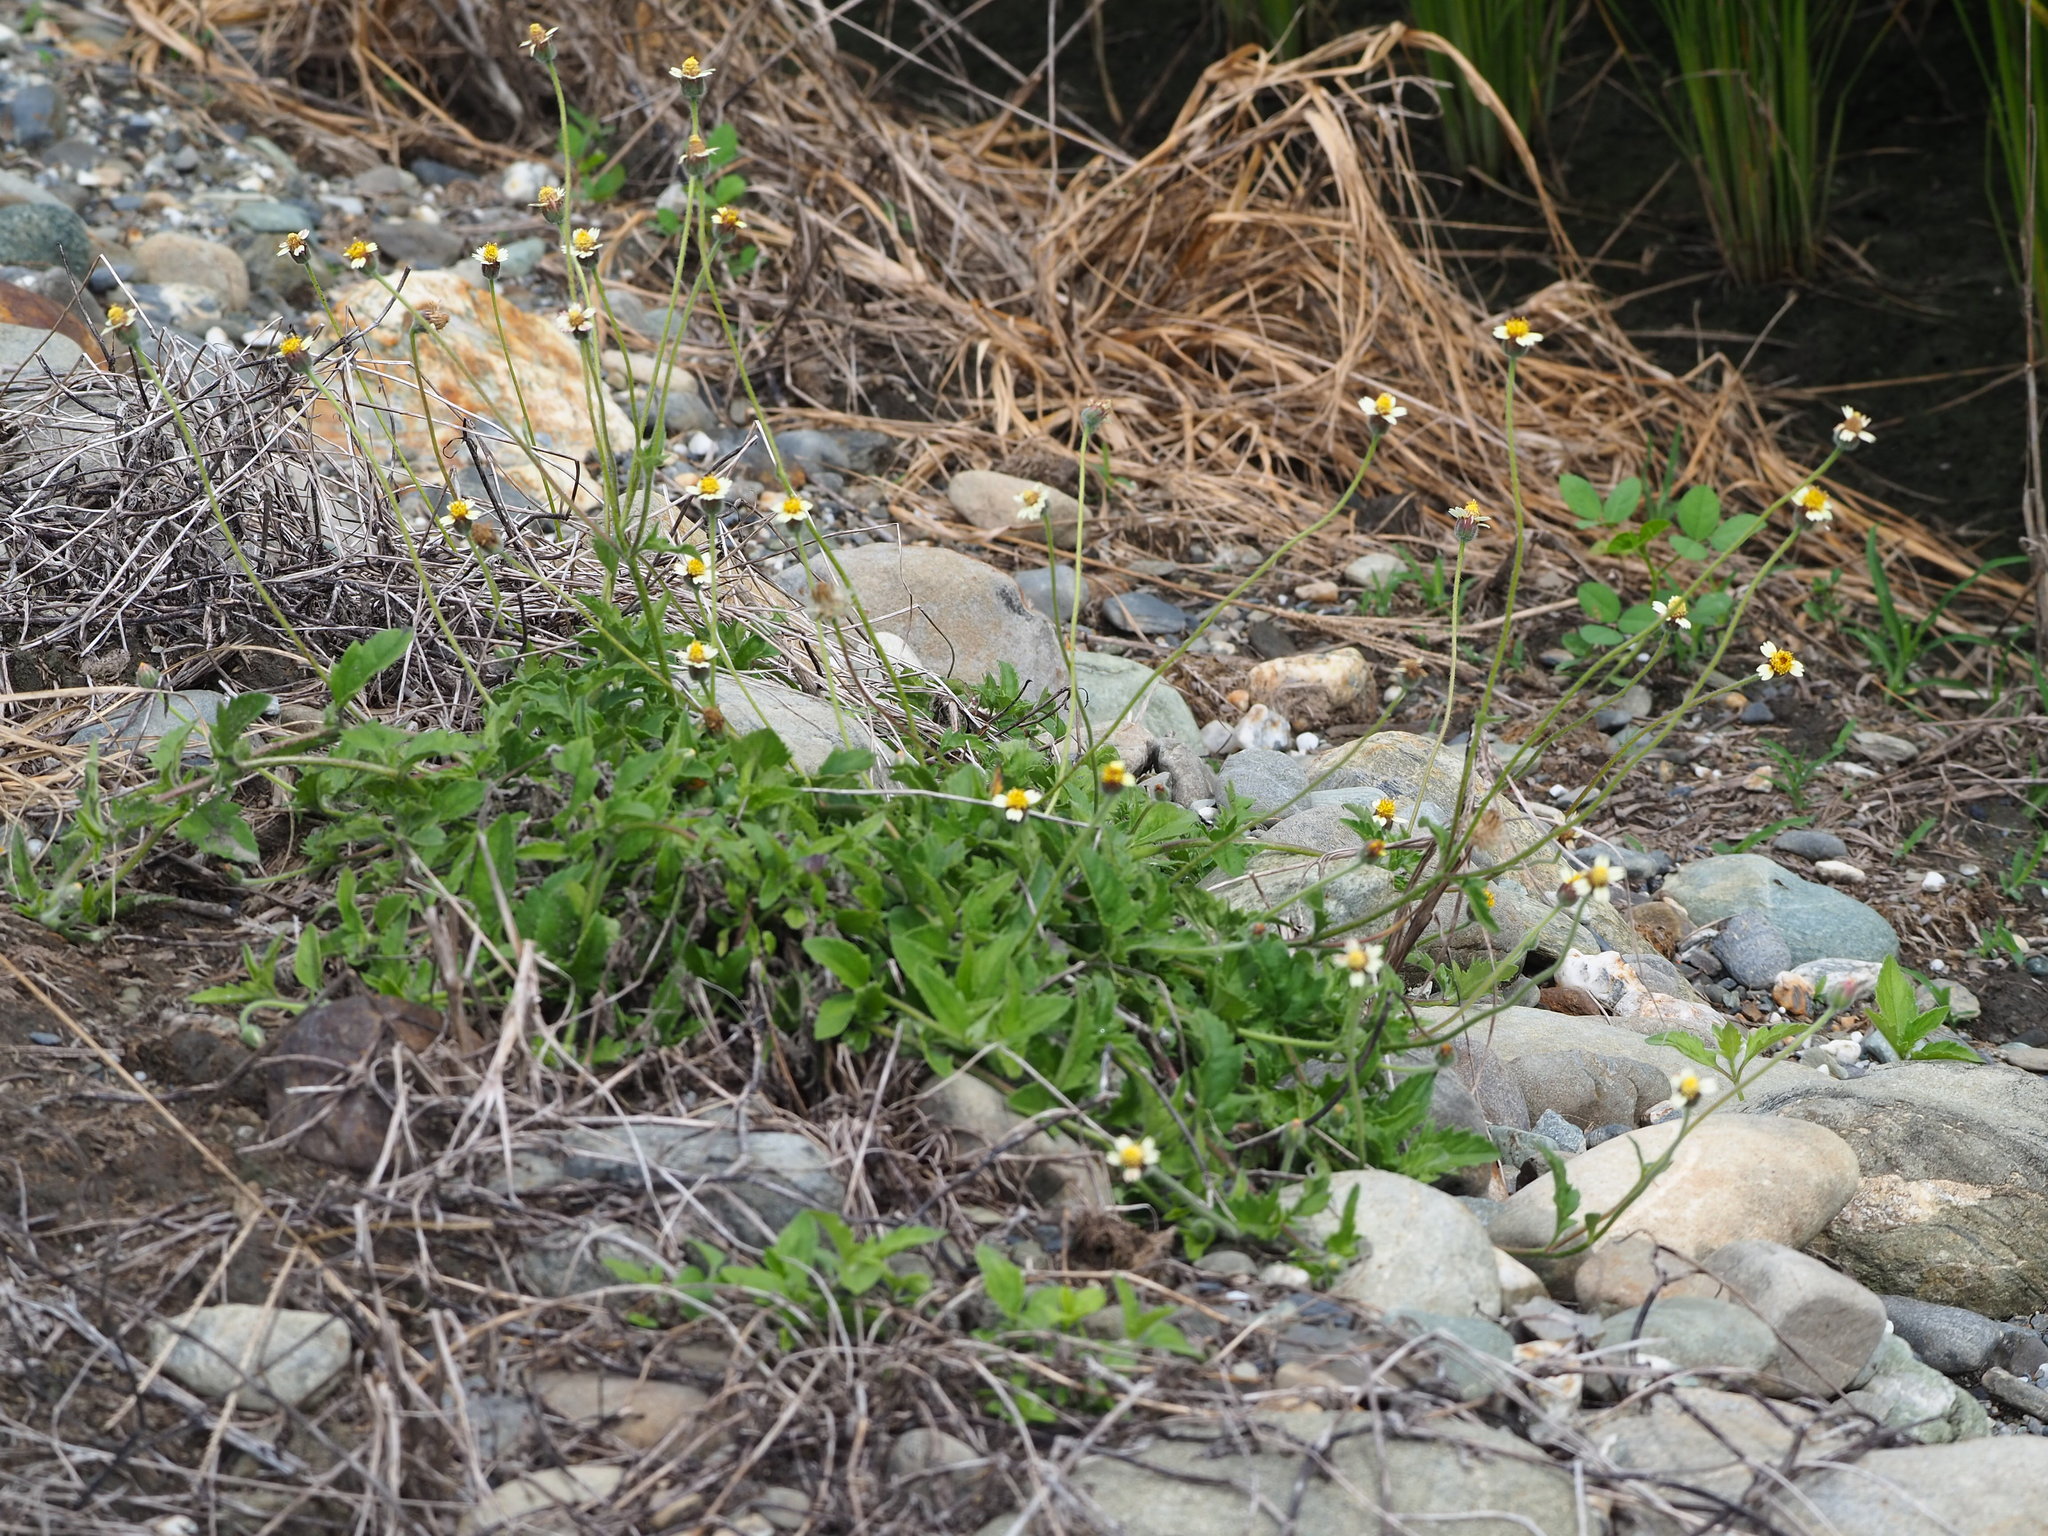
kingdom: Plantae
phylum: Tracheophyta
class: Magnoliopsida
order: Asterales
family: Asteraceae
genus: Tridax
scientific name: Tridax procumbens
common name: Coatbuttons
